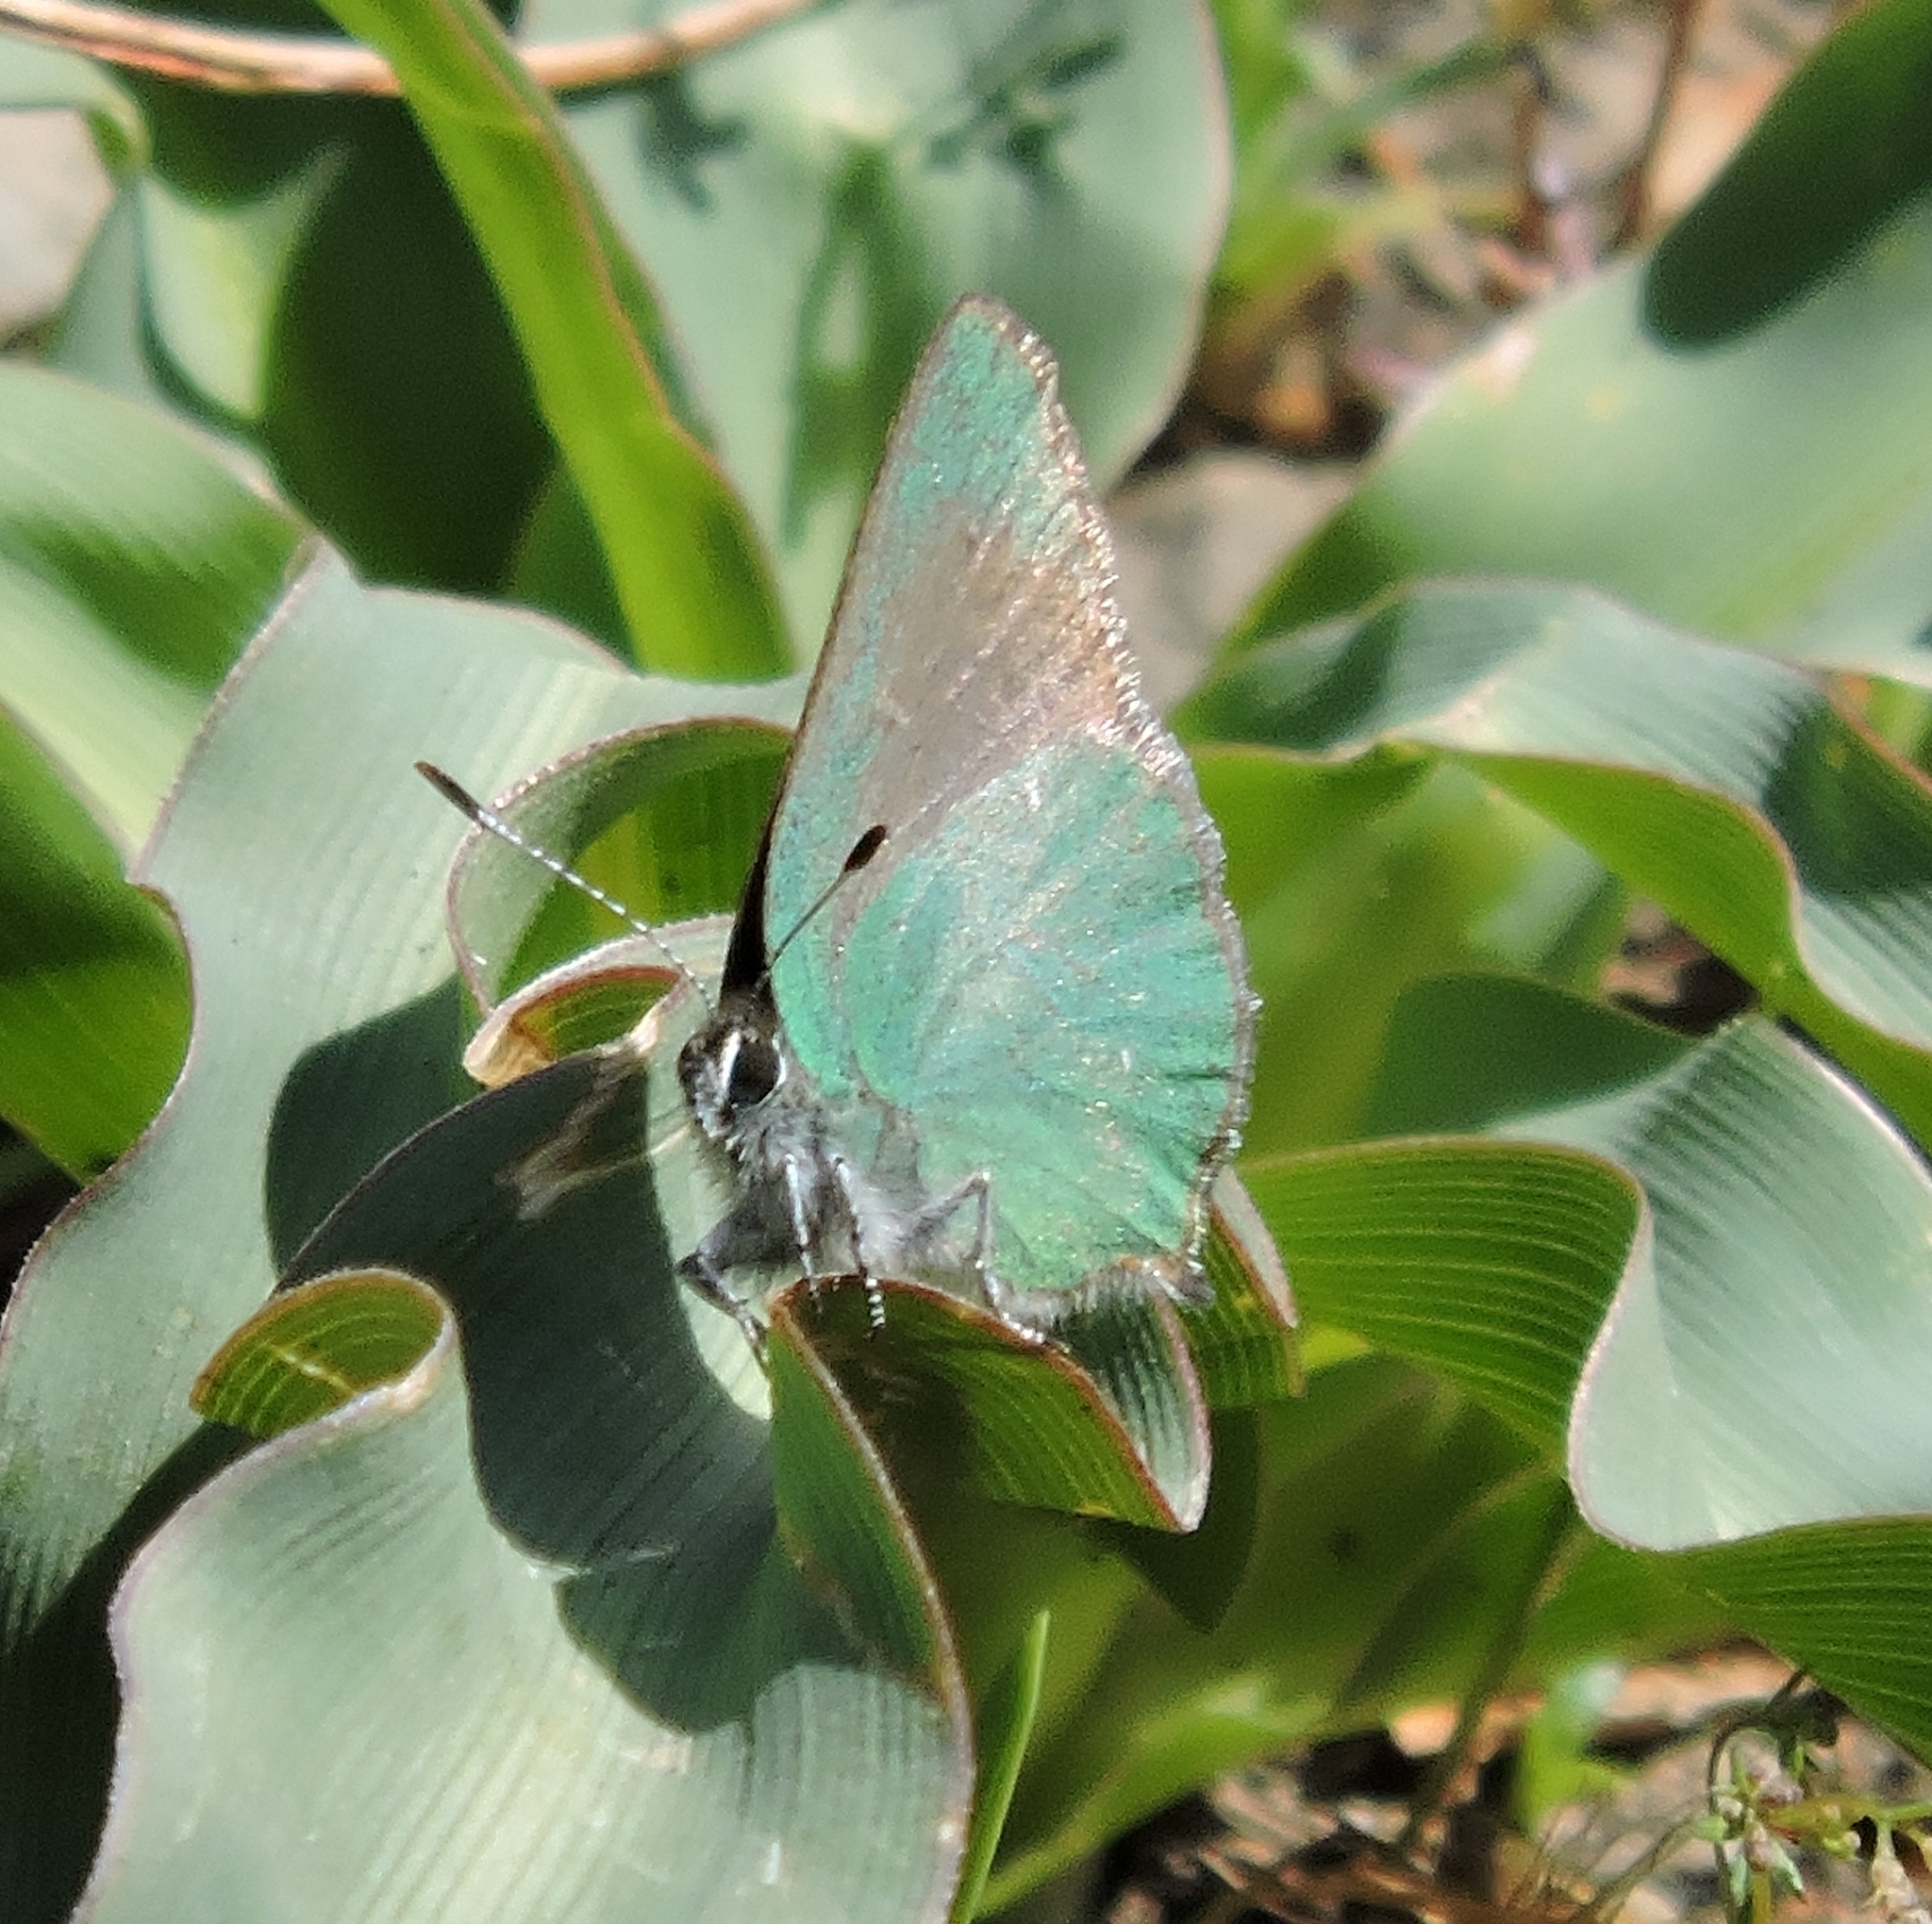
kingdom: Animalia
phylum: Arthropoda
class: Insecta
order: Lepidoptera
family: Lycaenidae
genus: Callophrys
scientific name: Callophrys dumetorum
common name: Bramble hairstreak
